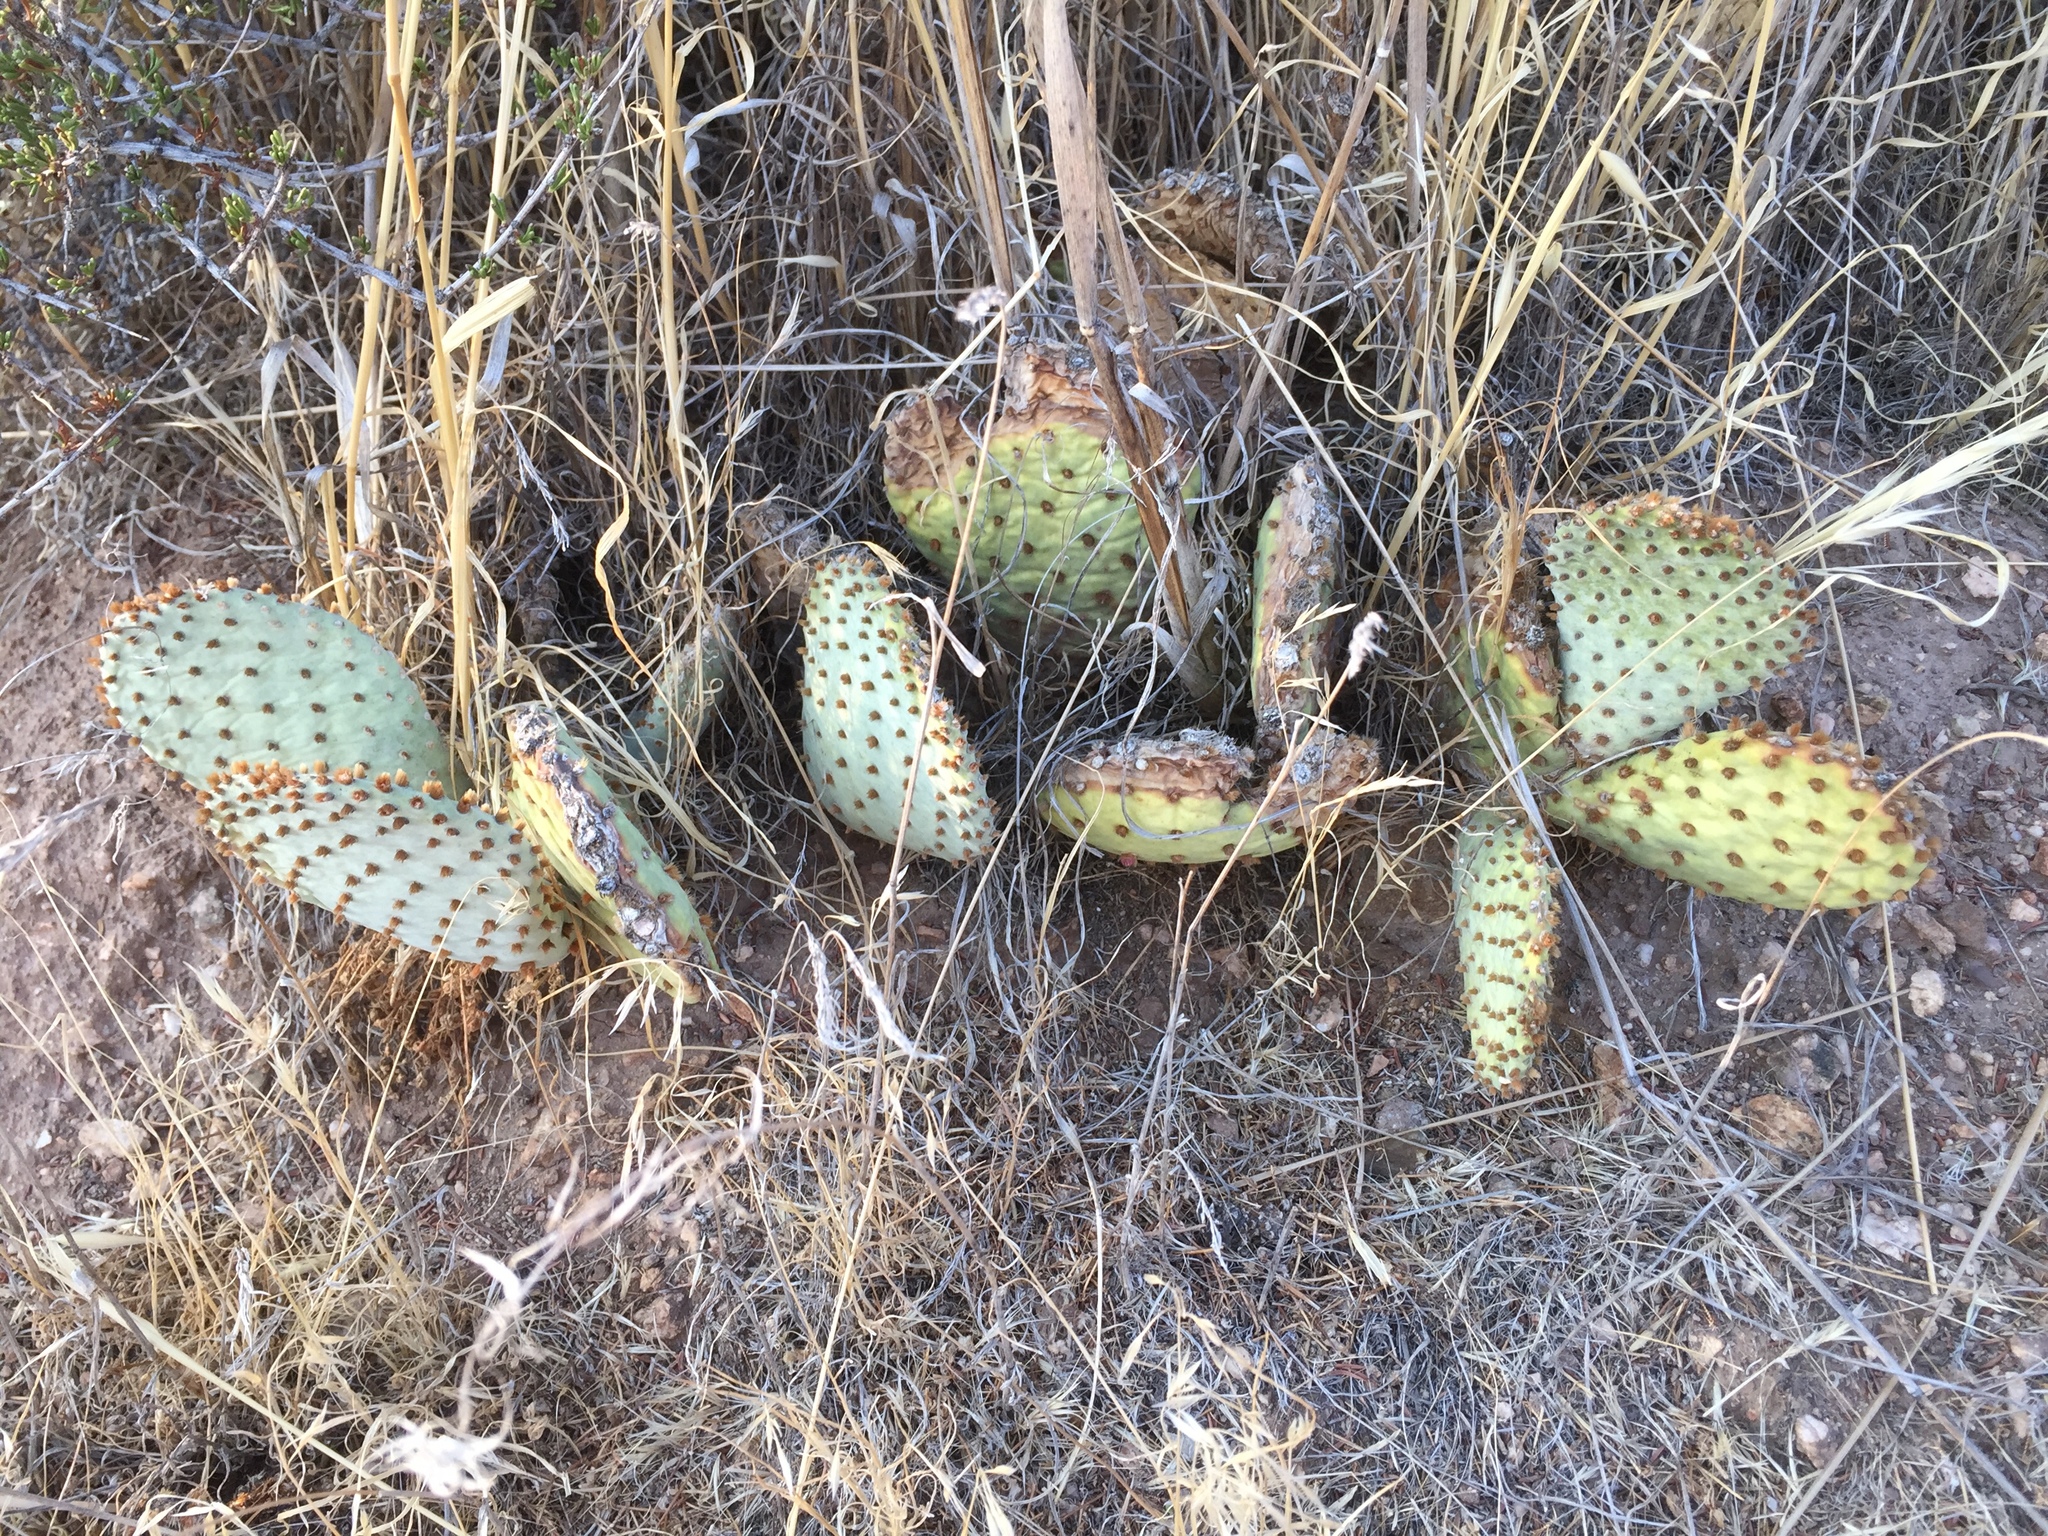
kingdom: Plantae
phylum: Tracheophyta
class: Magnoliopsida
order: Caryophyllales
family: Cactaceae
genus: Opuntia
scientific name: Opuntia basilaris
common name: Beavertail prickly-pear
